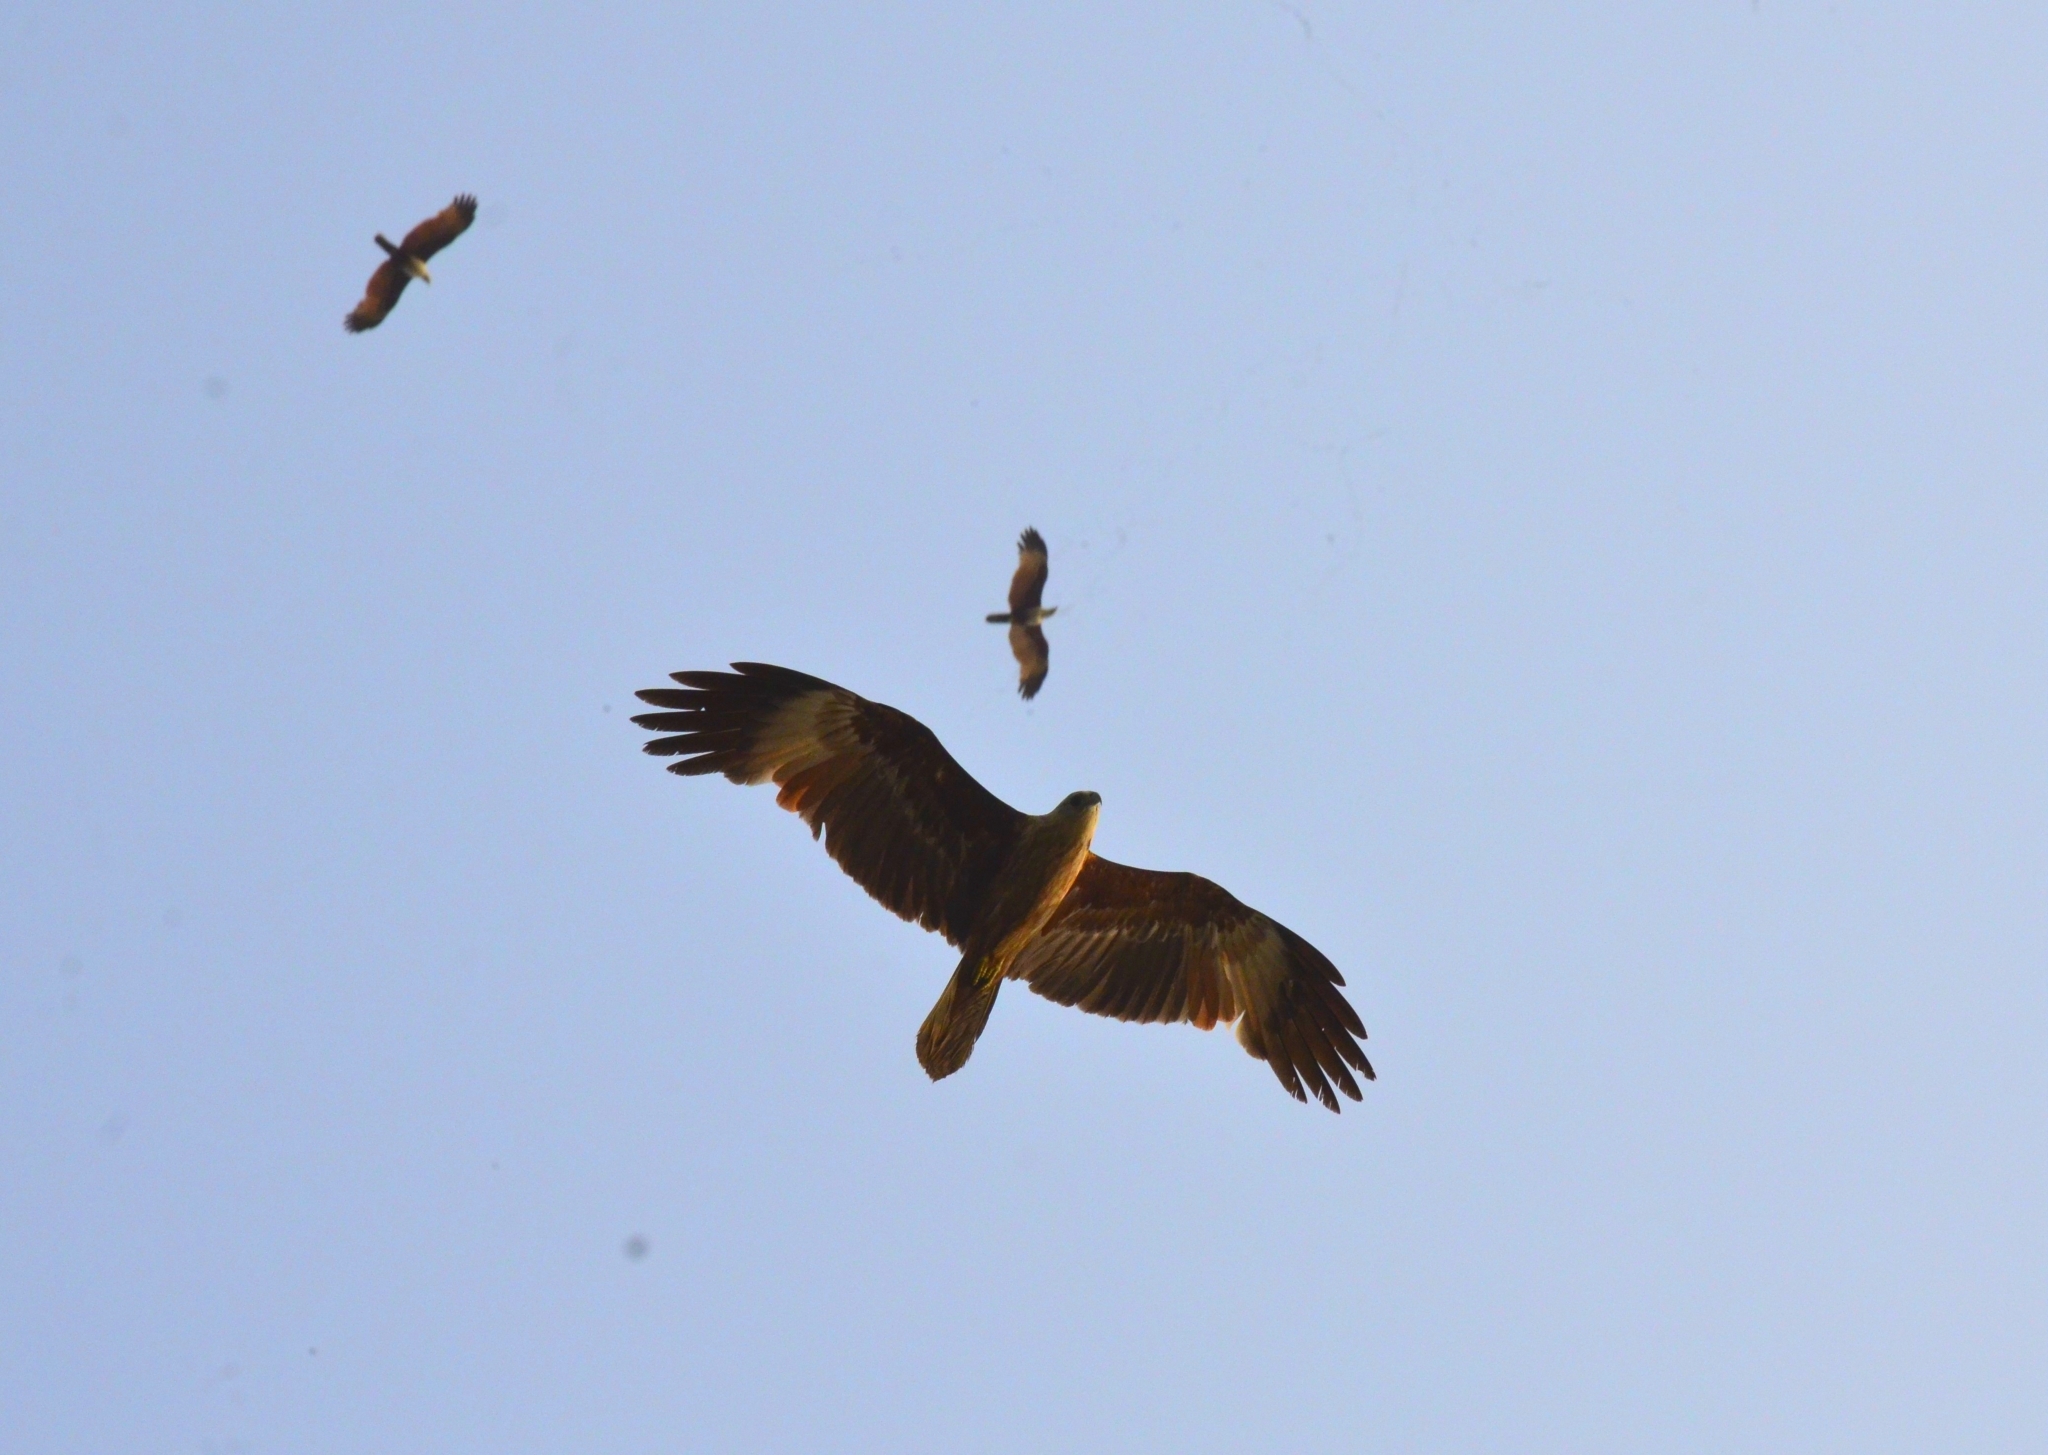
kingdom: Animalia
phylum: Chordata
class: Aves
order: Accipitriformes
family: Accipitridae
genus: Haliastur
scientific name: Haliastur indus
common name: Brahminy kite
